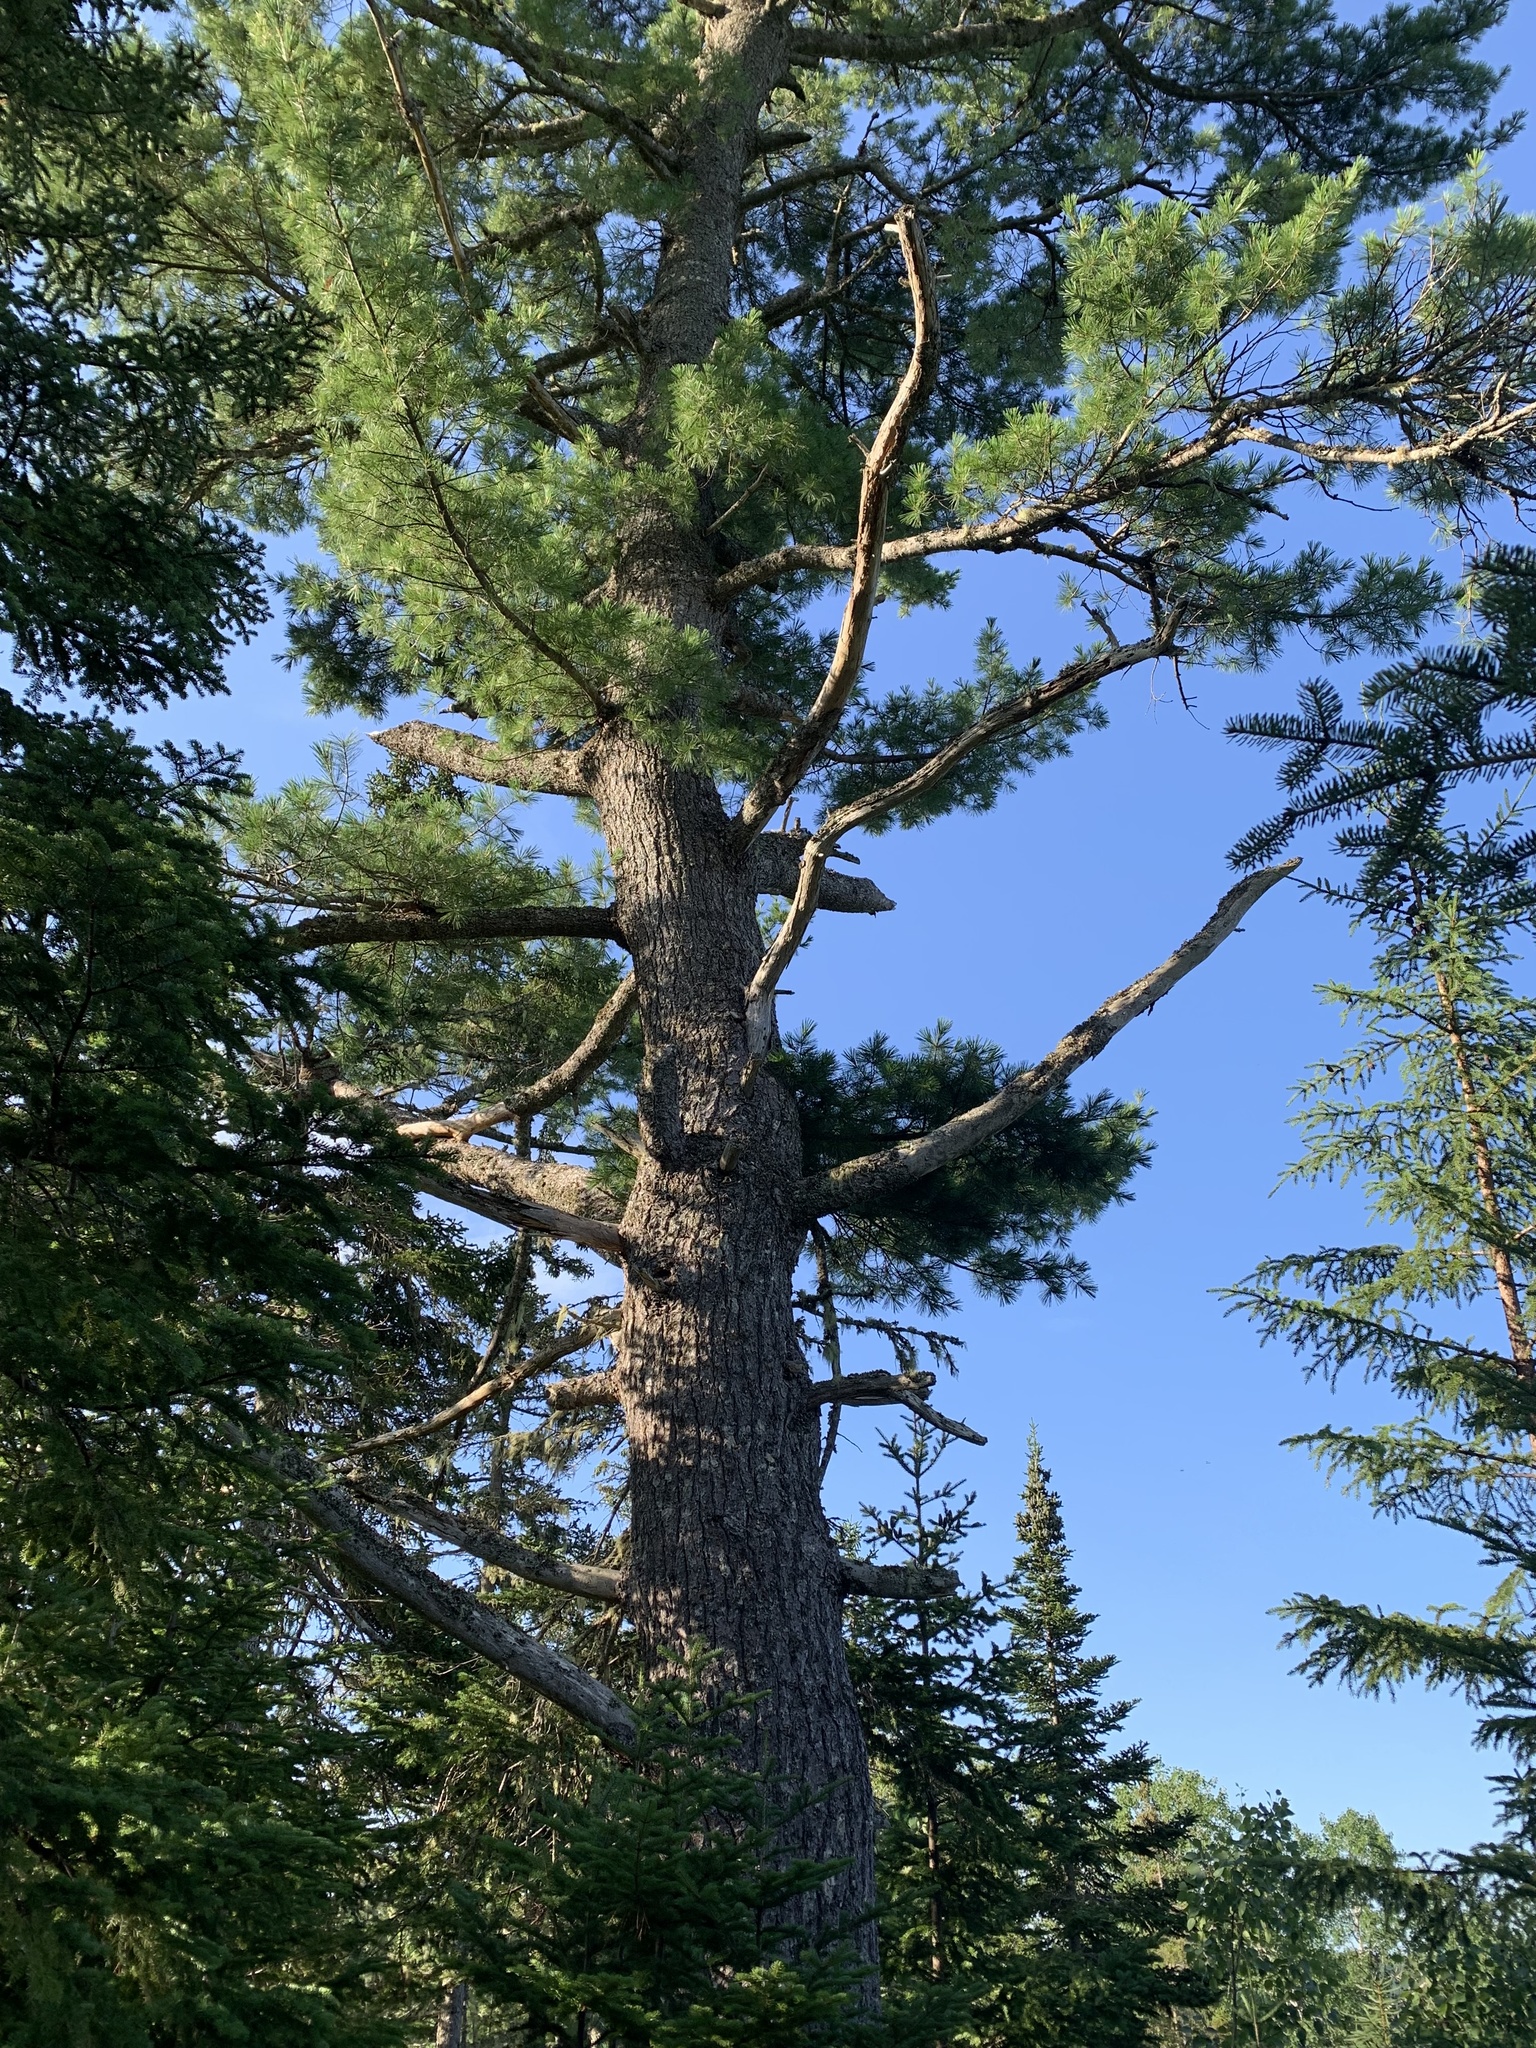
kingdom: Plantae
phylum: Tracheophyta
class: Pinopsida
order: Pinales
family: Pinaceae
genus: Pinus
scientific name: Pinus strobus
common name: Weymouth pine
